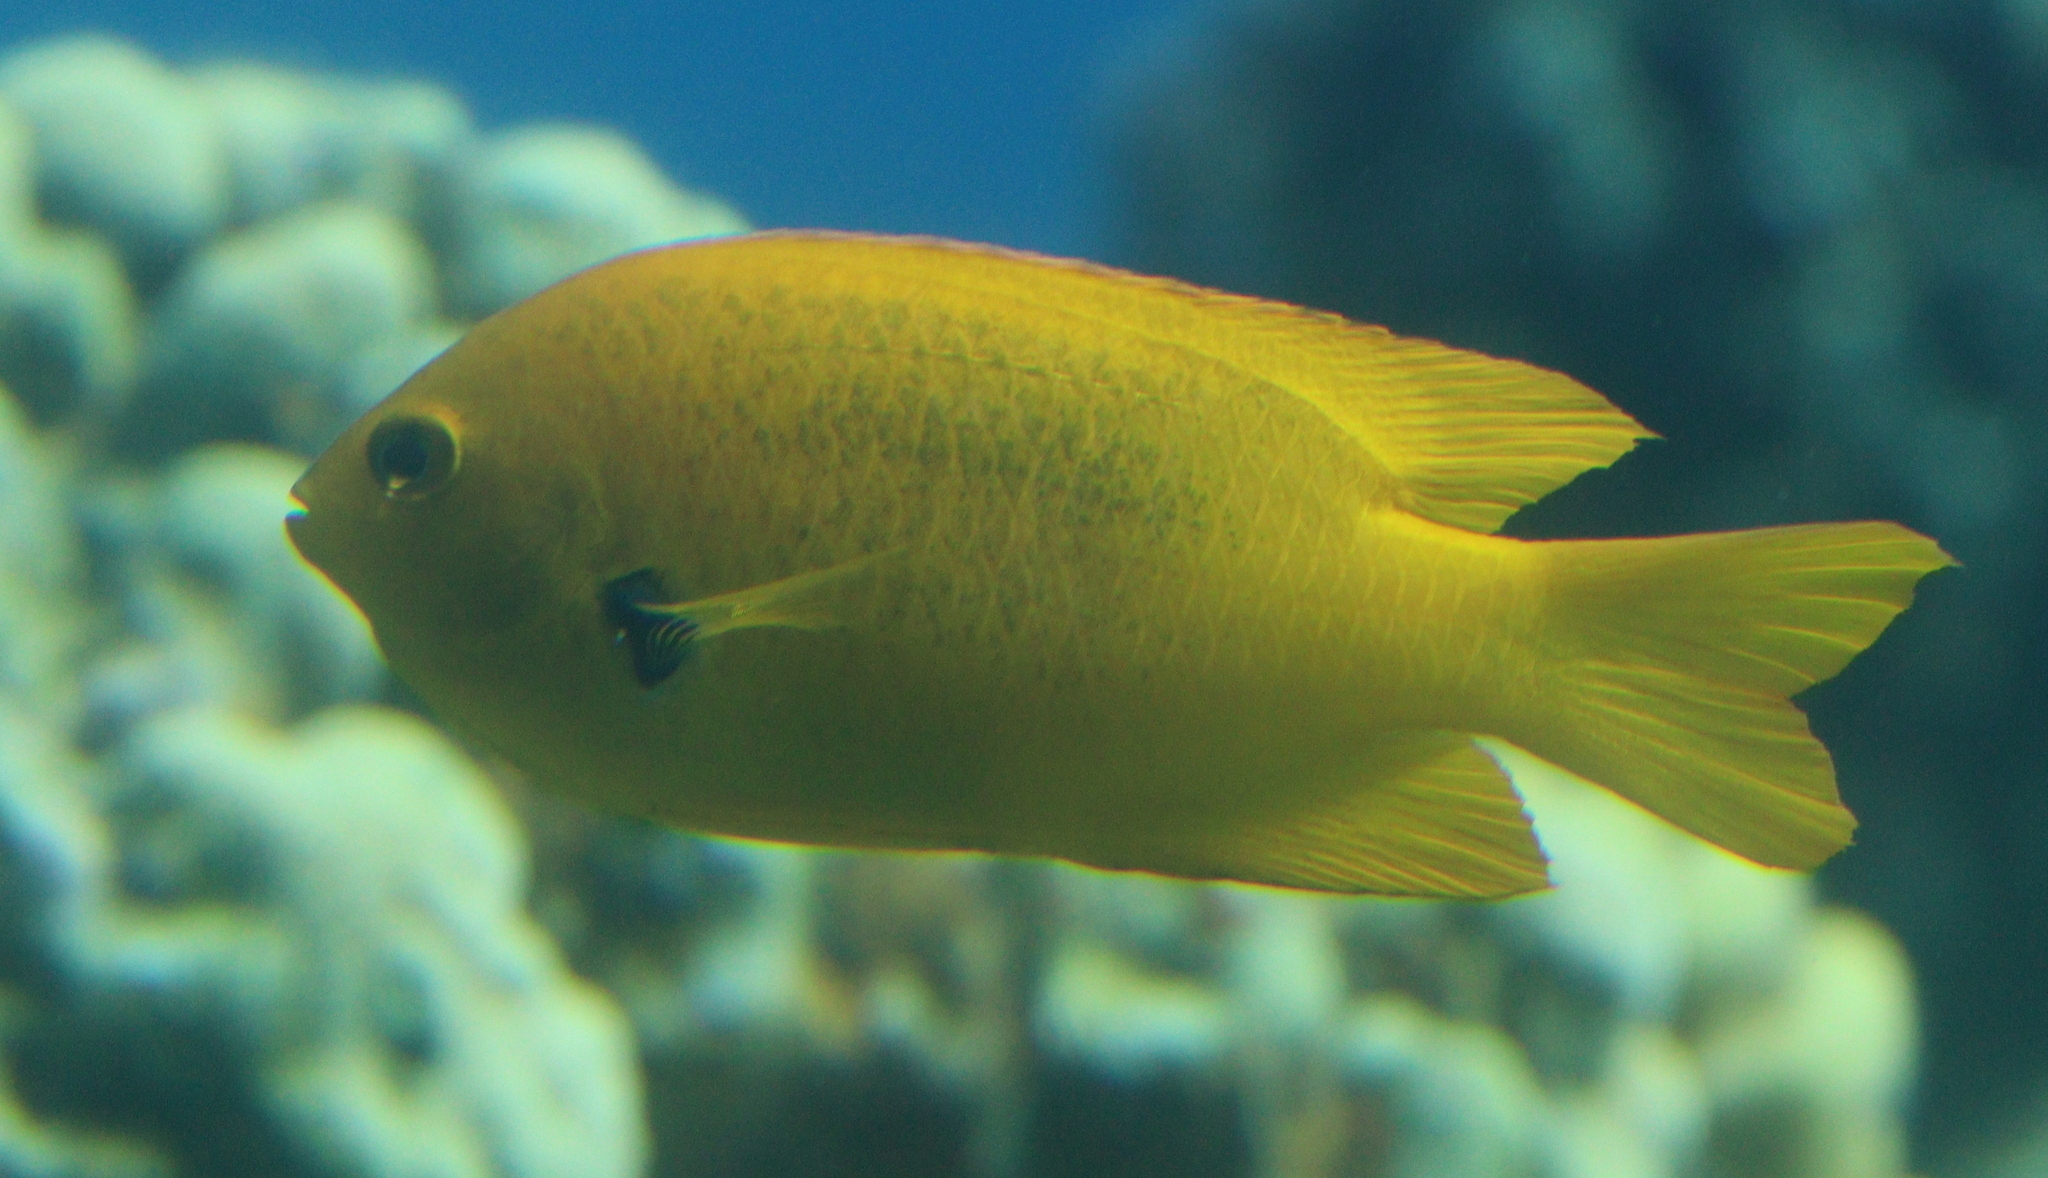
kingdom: Animalia
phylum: Chordata
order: Perciformes
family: Pomacentridae
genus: Pomacentrus
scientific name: Pomacentrus sulfureus
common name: Sulfur damsel
